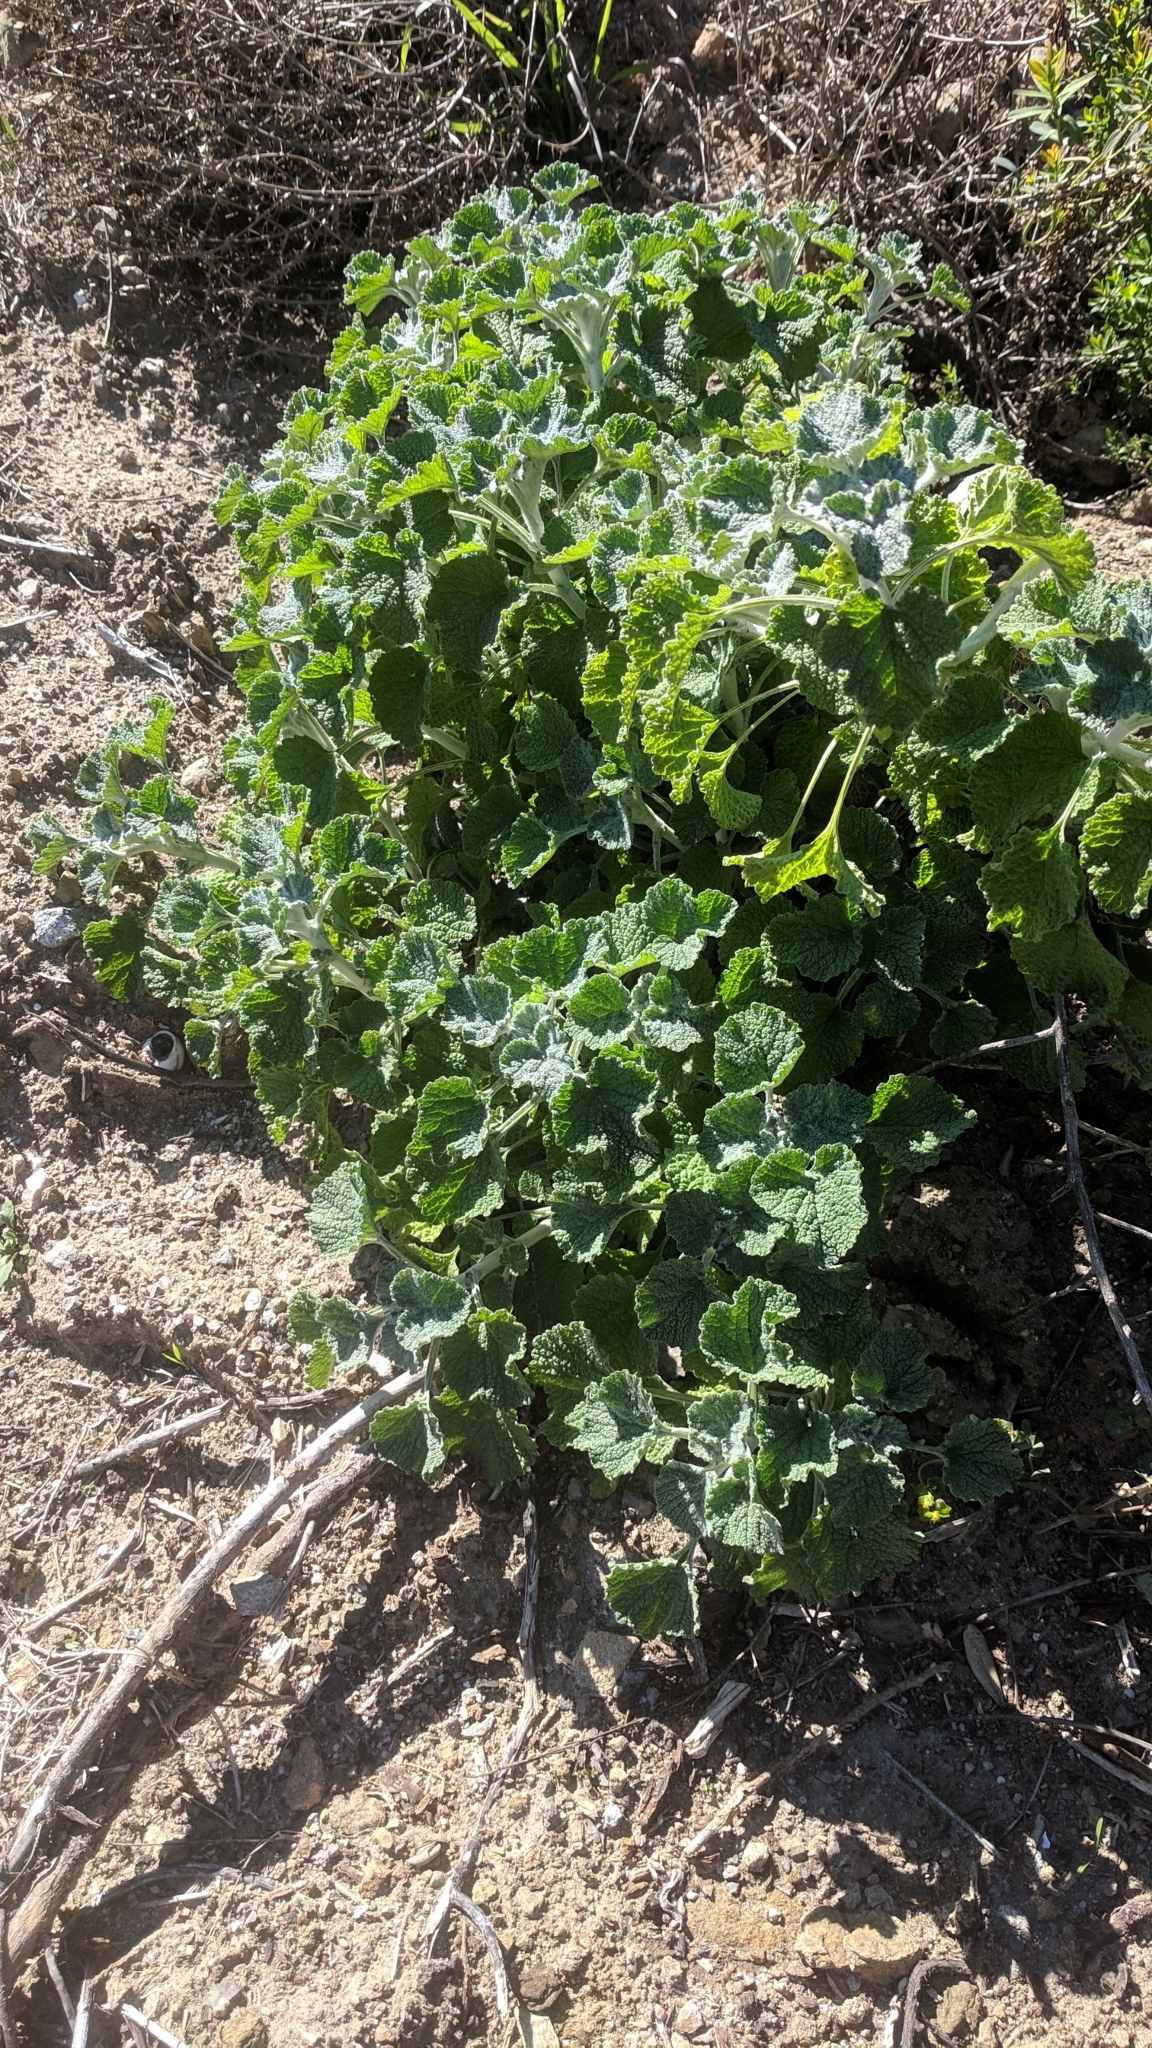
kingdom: Plantae
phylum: Tracheophyta
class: Magnoliopsida
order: Lamiales
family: Lamiaceae
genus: Marrubium
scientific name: Marrubium vulgare
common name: Horehound
